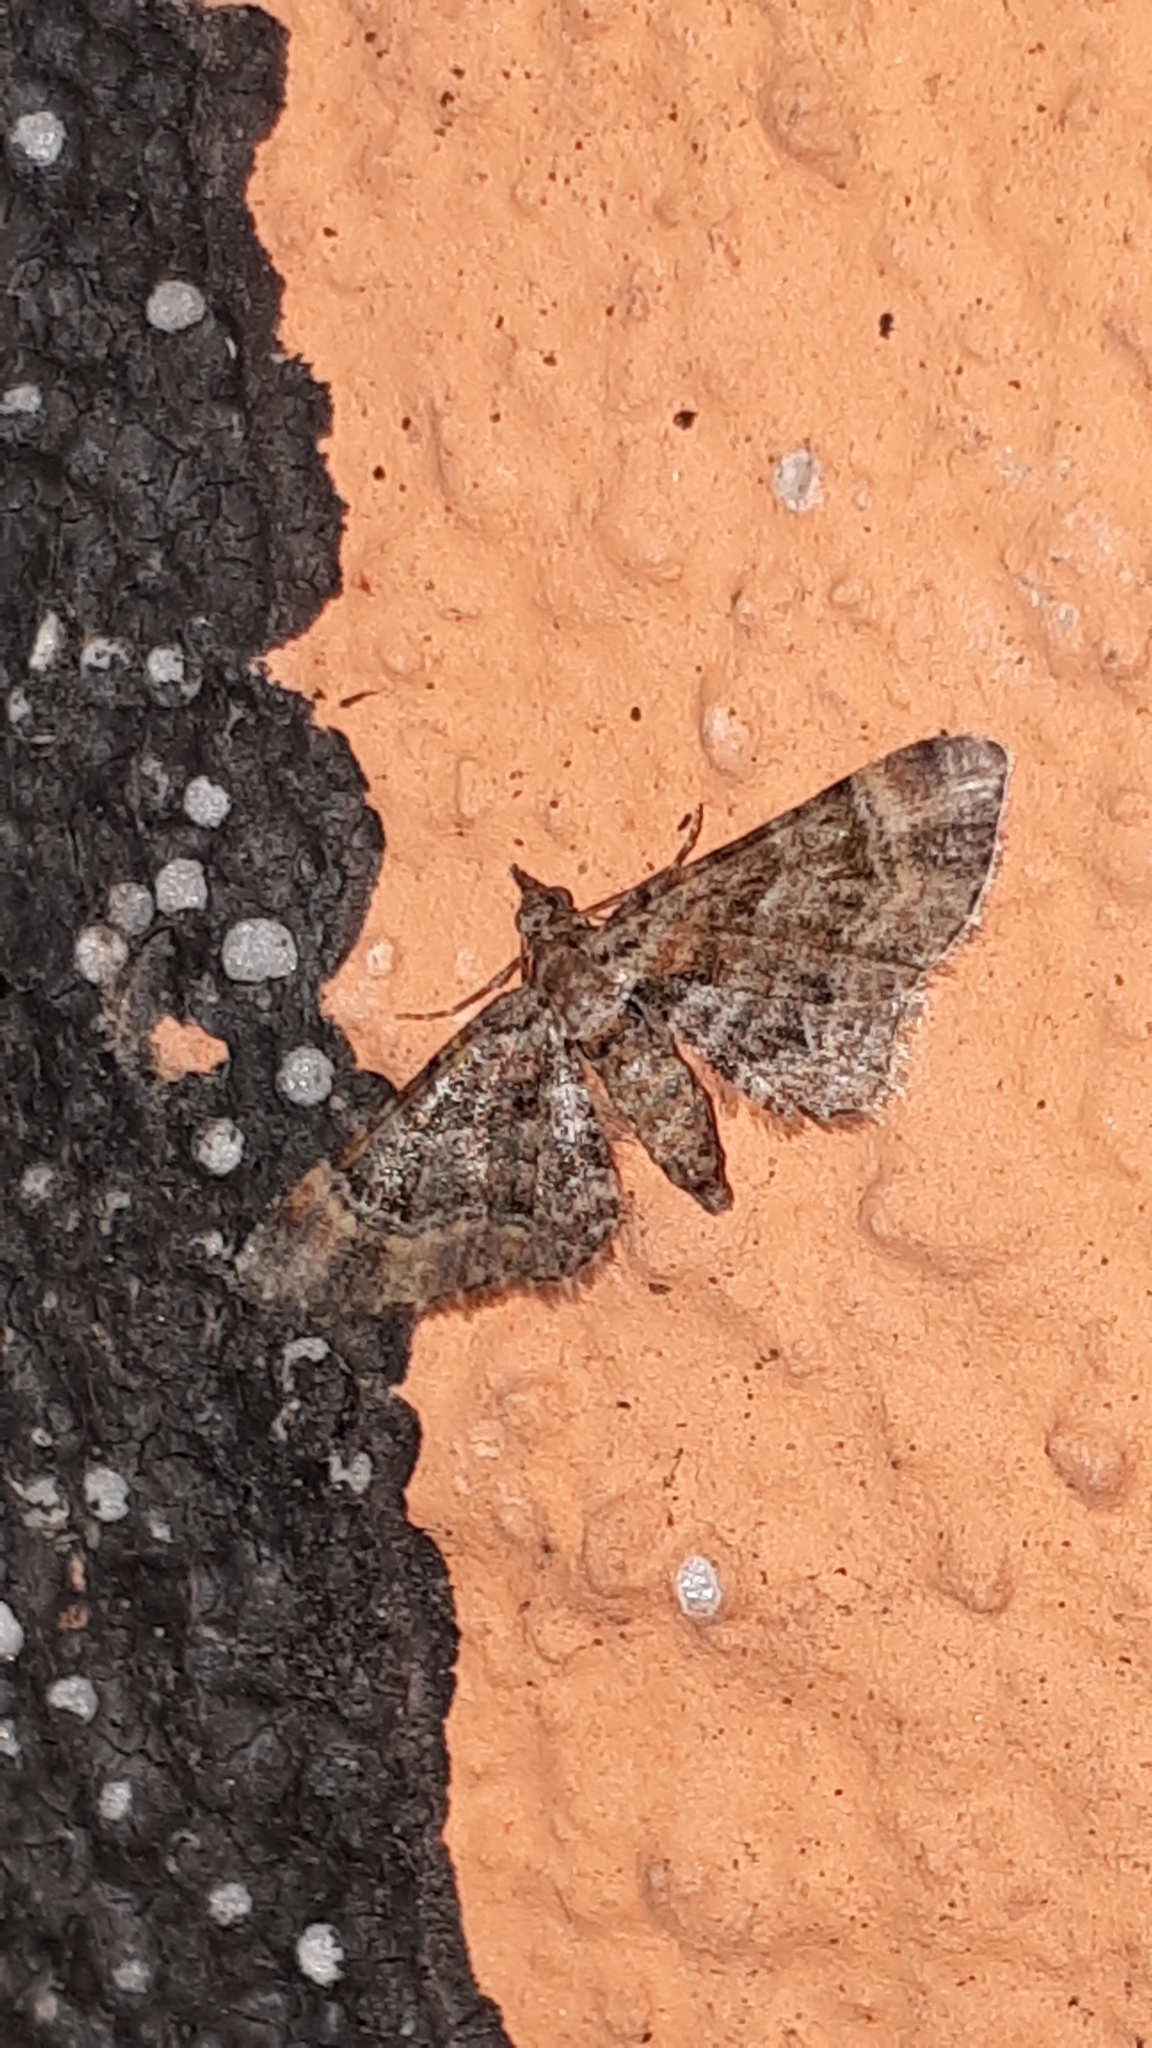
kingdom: Animalia
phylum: Arthropoda
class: Insecta
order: Lepidoptera
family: Geometridae
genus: Gymnoscelis
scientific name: Gymnoscelis rufifasciata
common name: Double-striped pug
